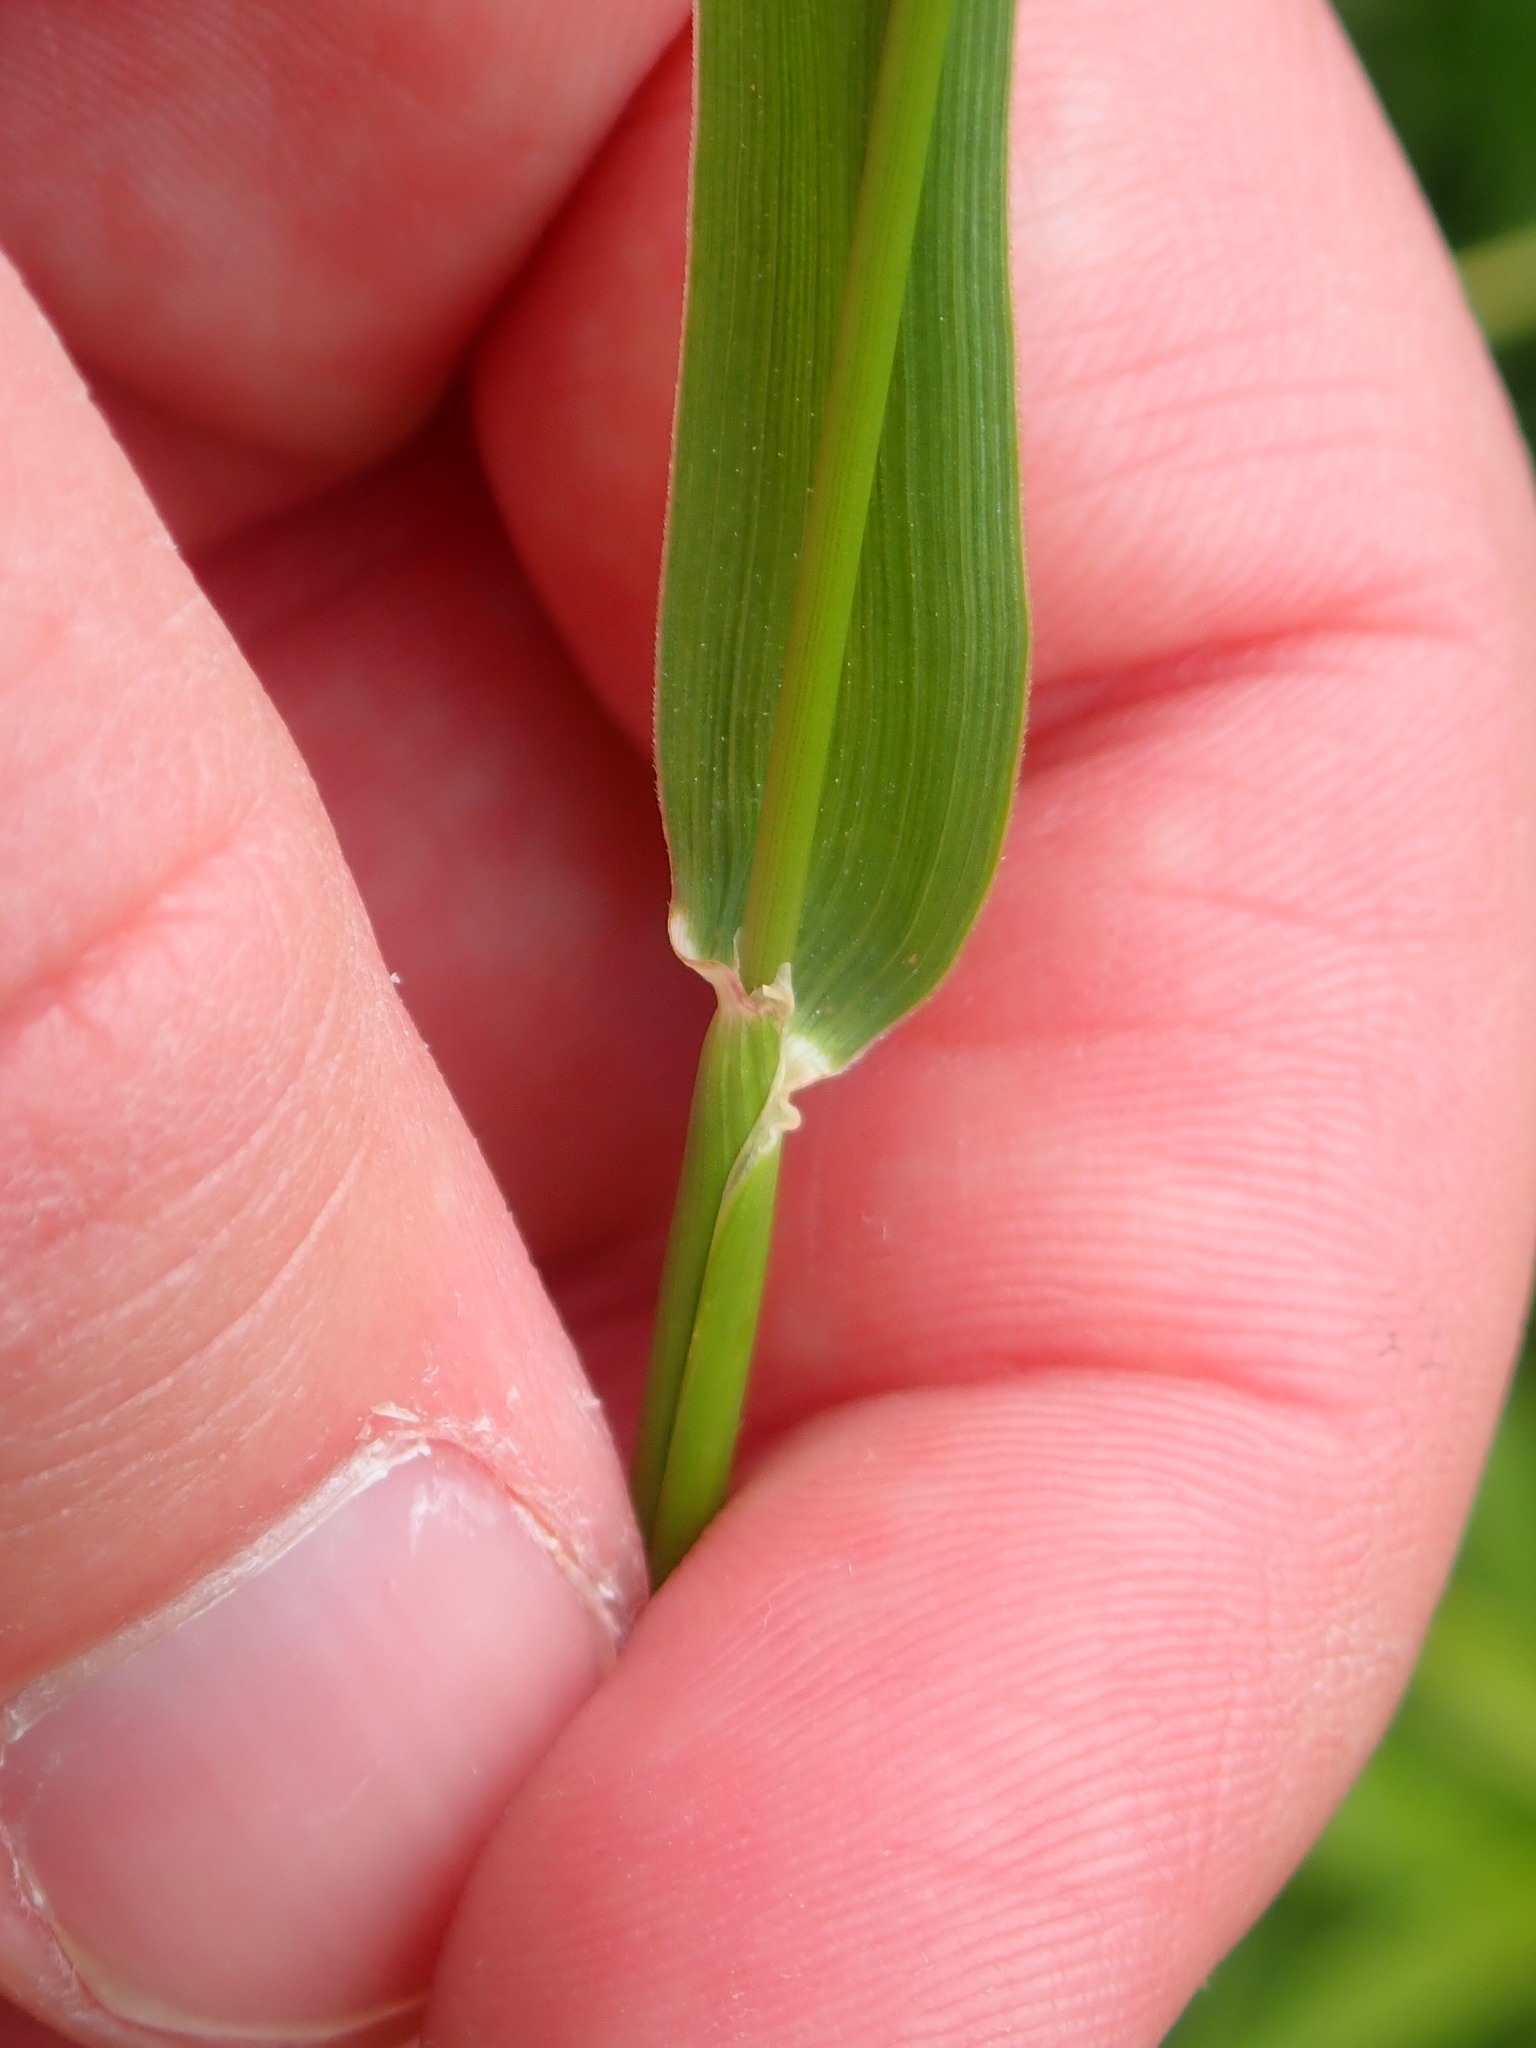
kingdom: Plantae
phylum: Tracheophyta
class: Liliopsida
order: Poales
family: Poaceae
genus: Phleum
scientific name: Phleum pratense
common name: Timothy grass
